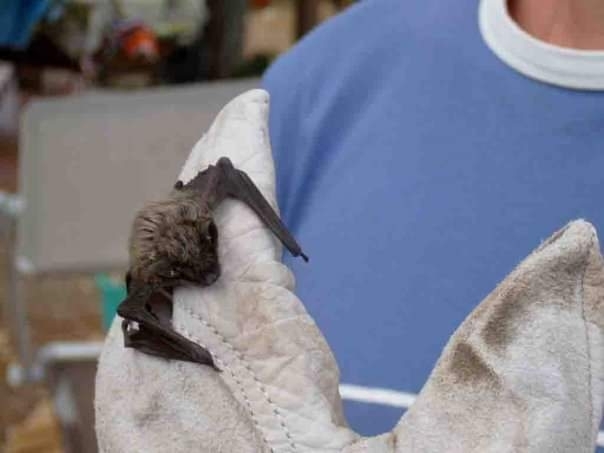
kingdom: Animalia
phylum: Chordata
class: Mammalia
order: Chiroptera
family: Vespertilionidae
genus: Hypsugo
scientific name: Hypsugo savii
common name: Savi's pipistrelle
